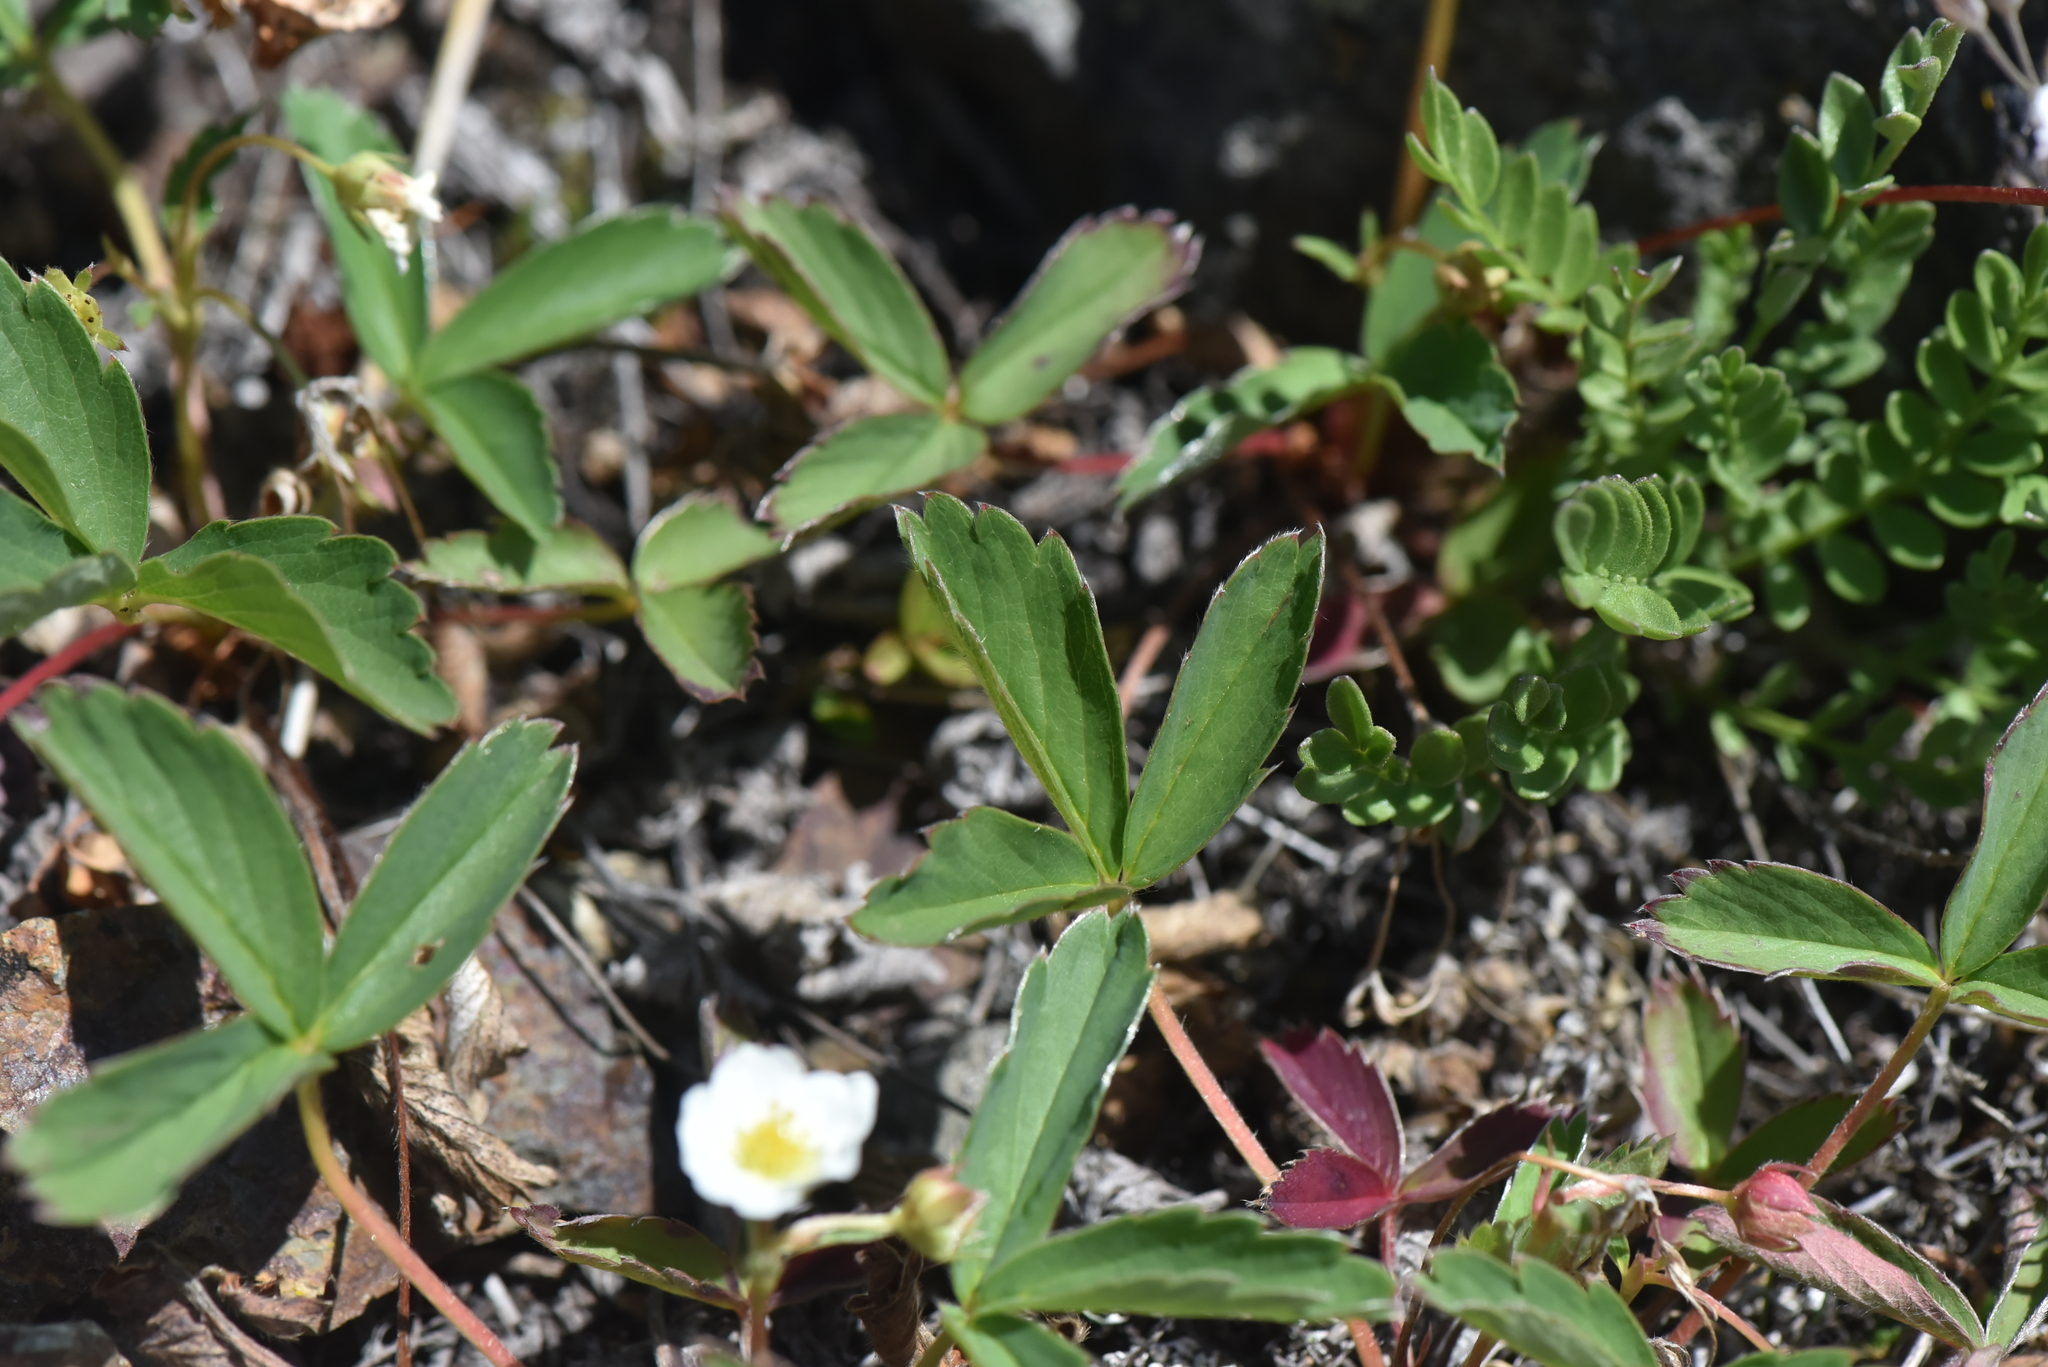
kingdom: Plantae
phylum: Tracheophyta
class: Magnoliopsida
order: Rosales
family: Rosaceae
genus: Fragaria
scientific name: Fragaria virginiana
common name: Thickleaved wild strawberry
